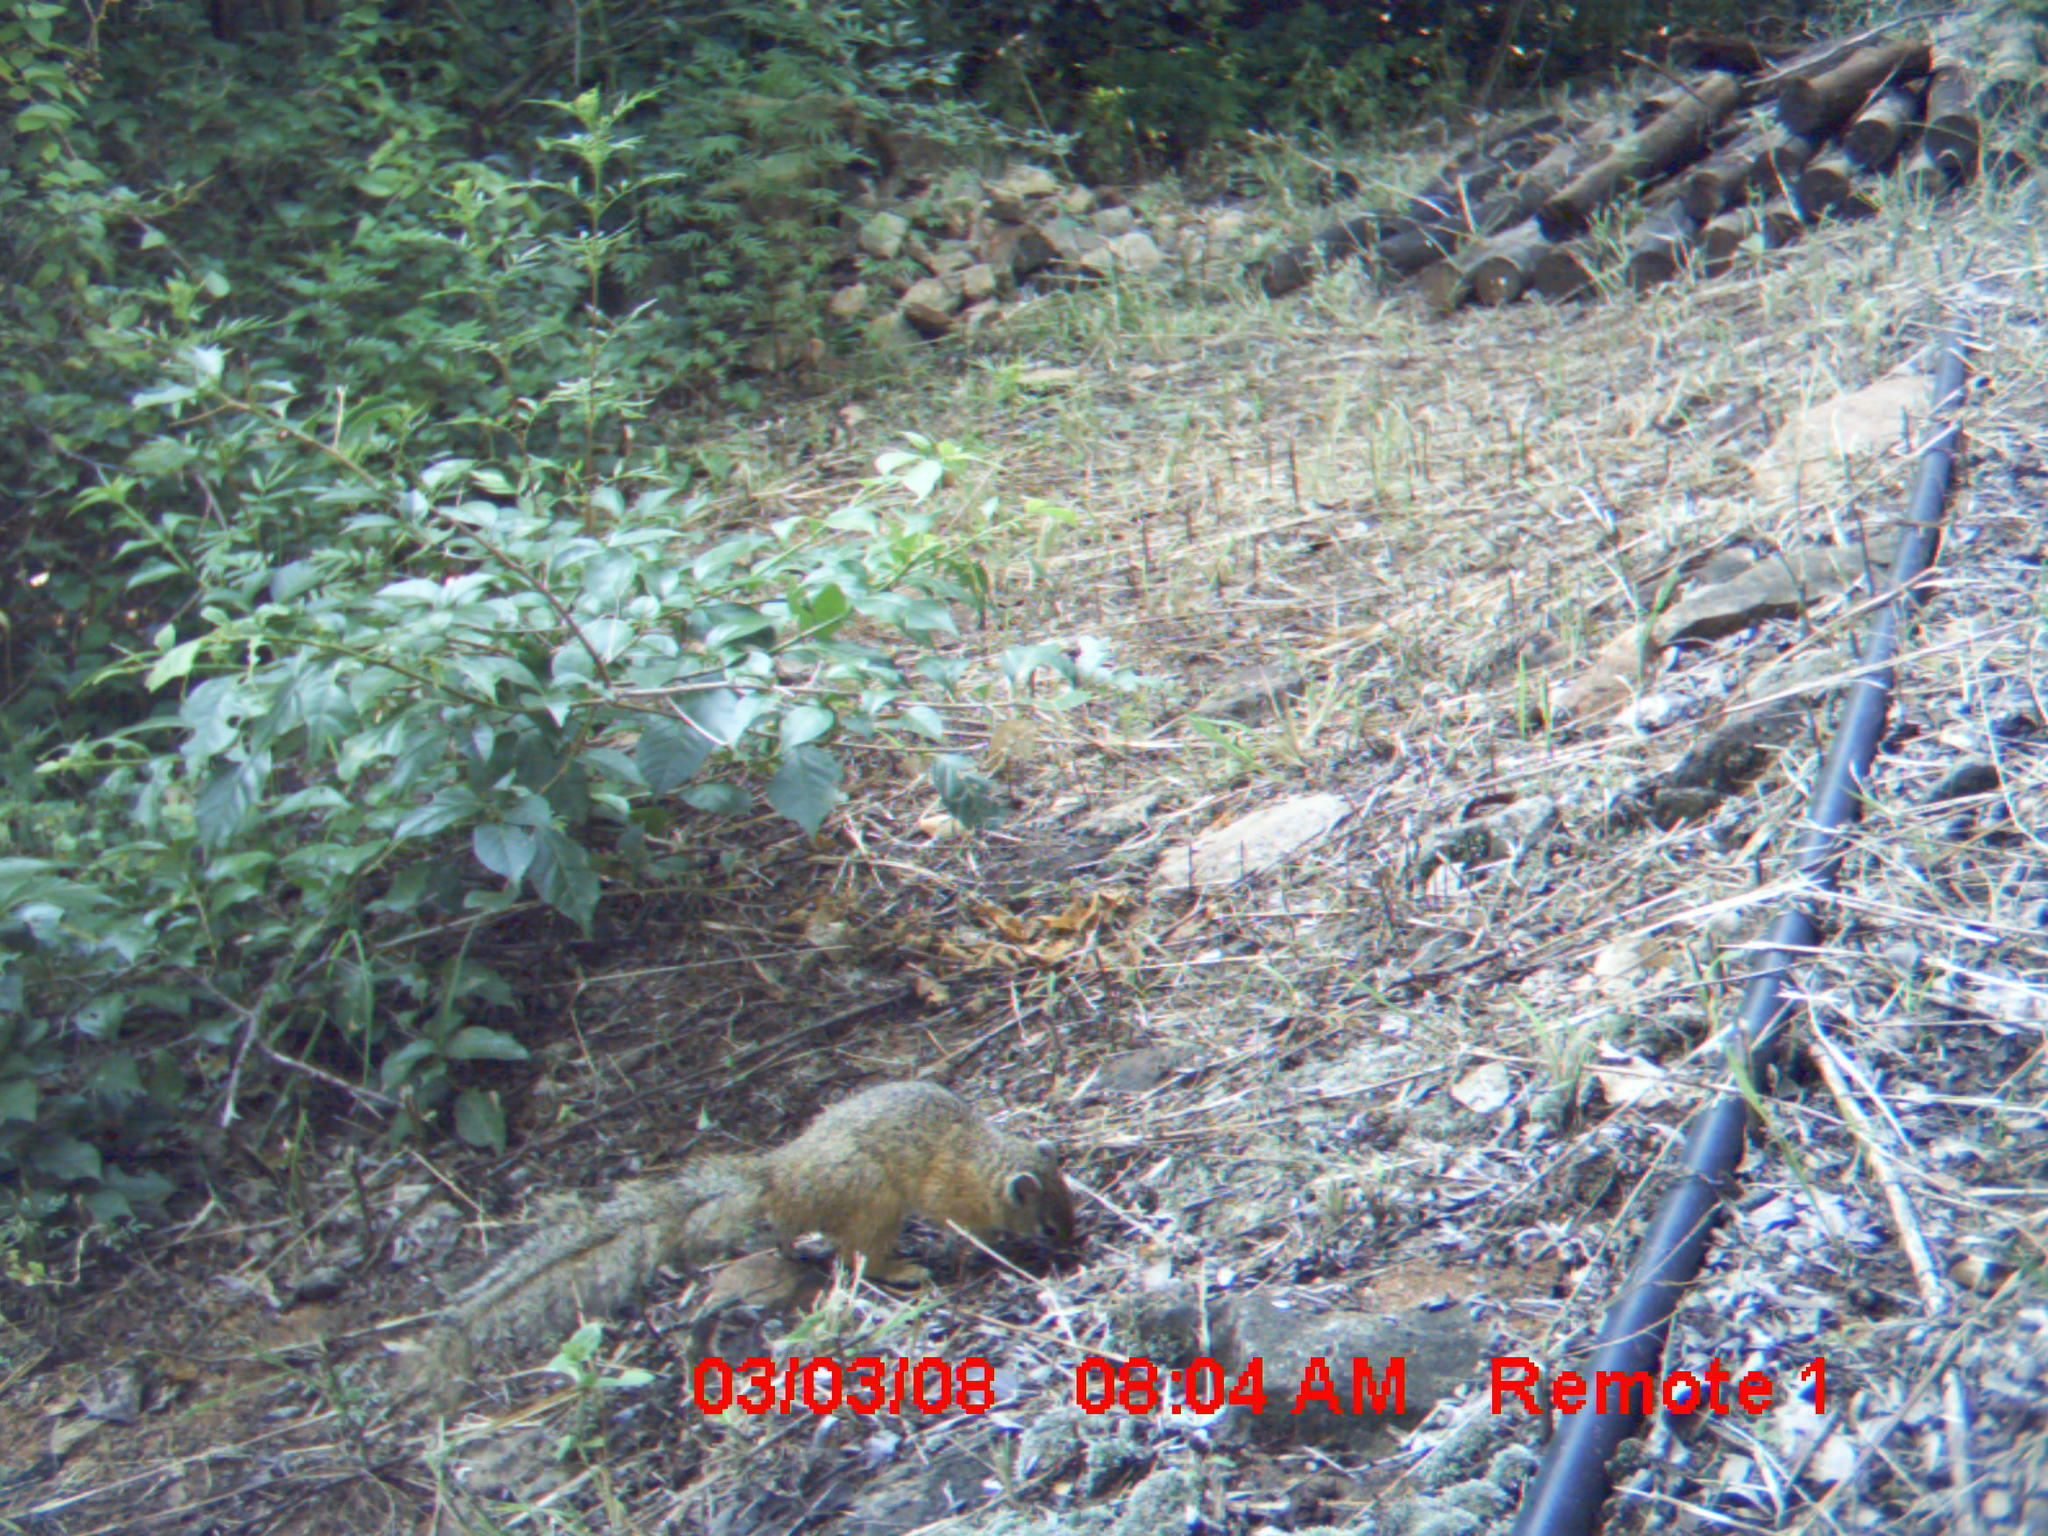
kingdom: Animalia
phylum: Chordata
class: Mammalia
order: Rodentia
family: Sciuridae
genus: Paraxerus
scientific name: Paraxerus cepapi
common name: Smith's bush squirrel
